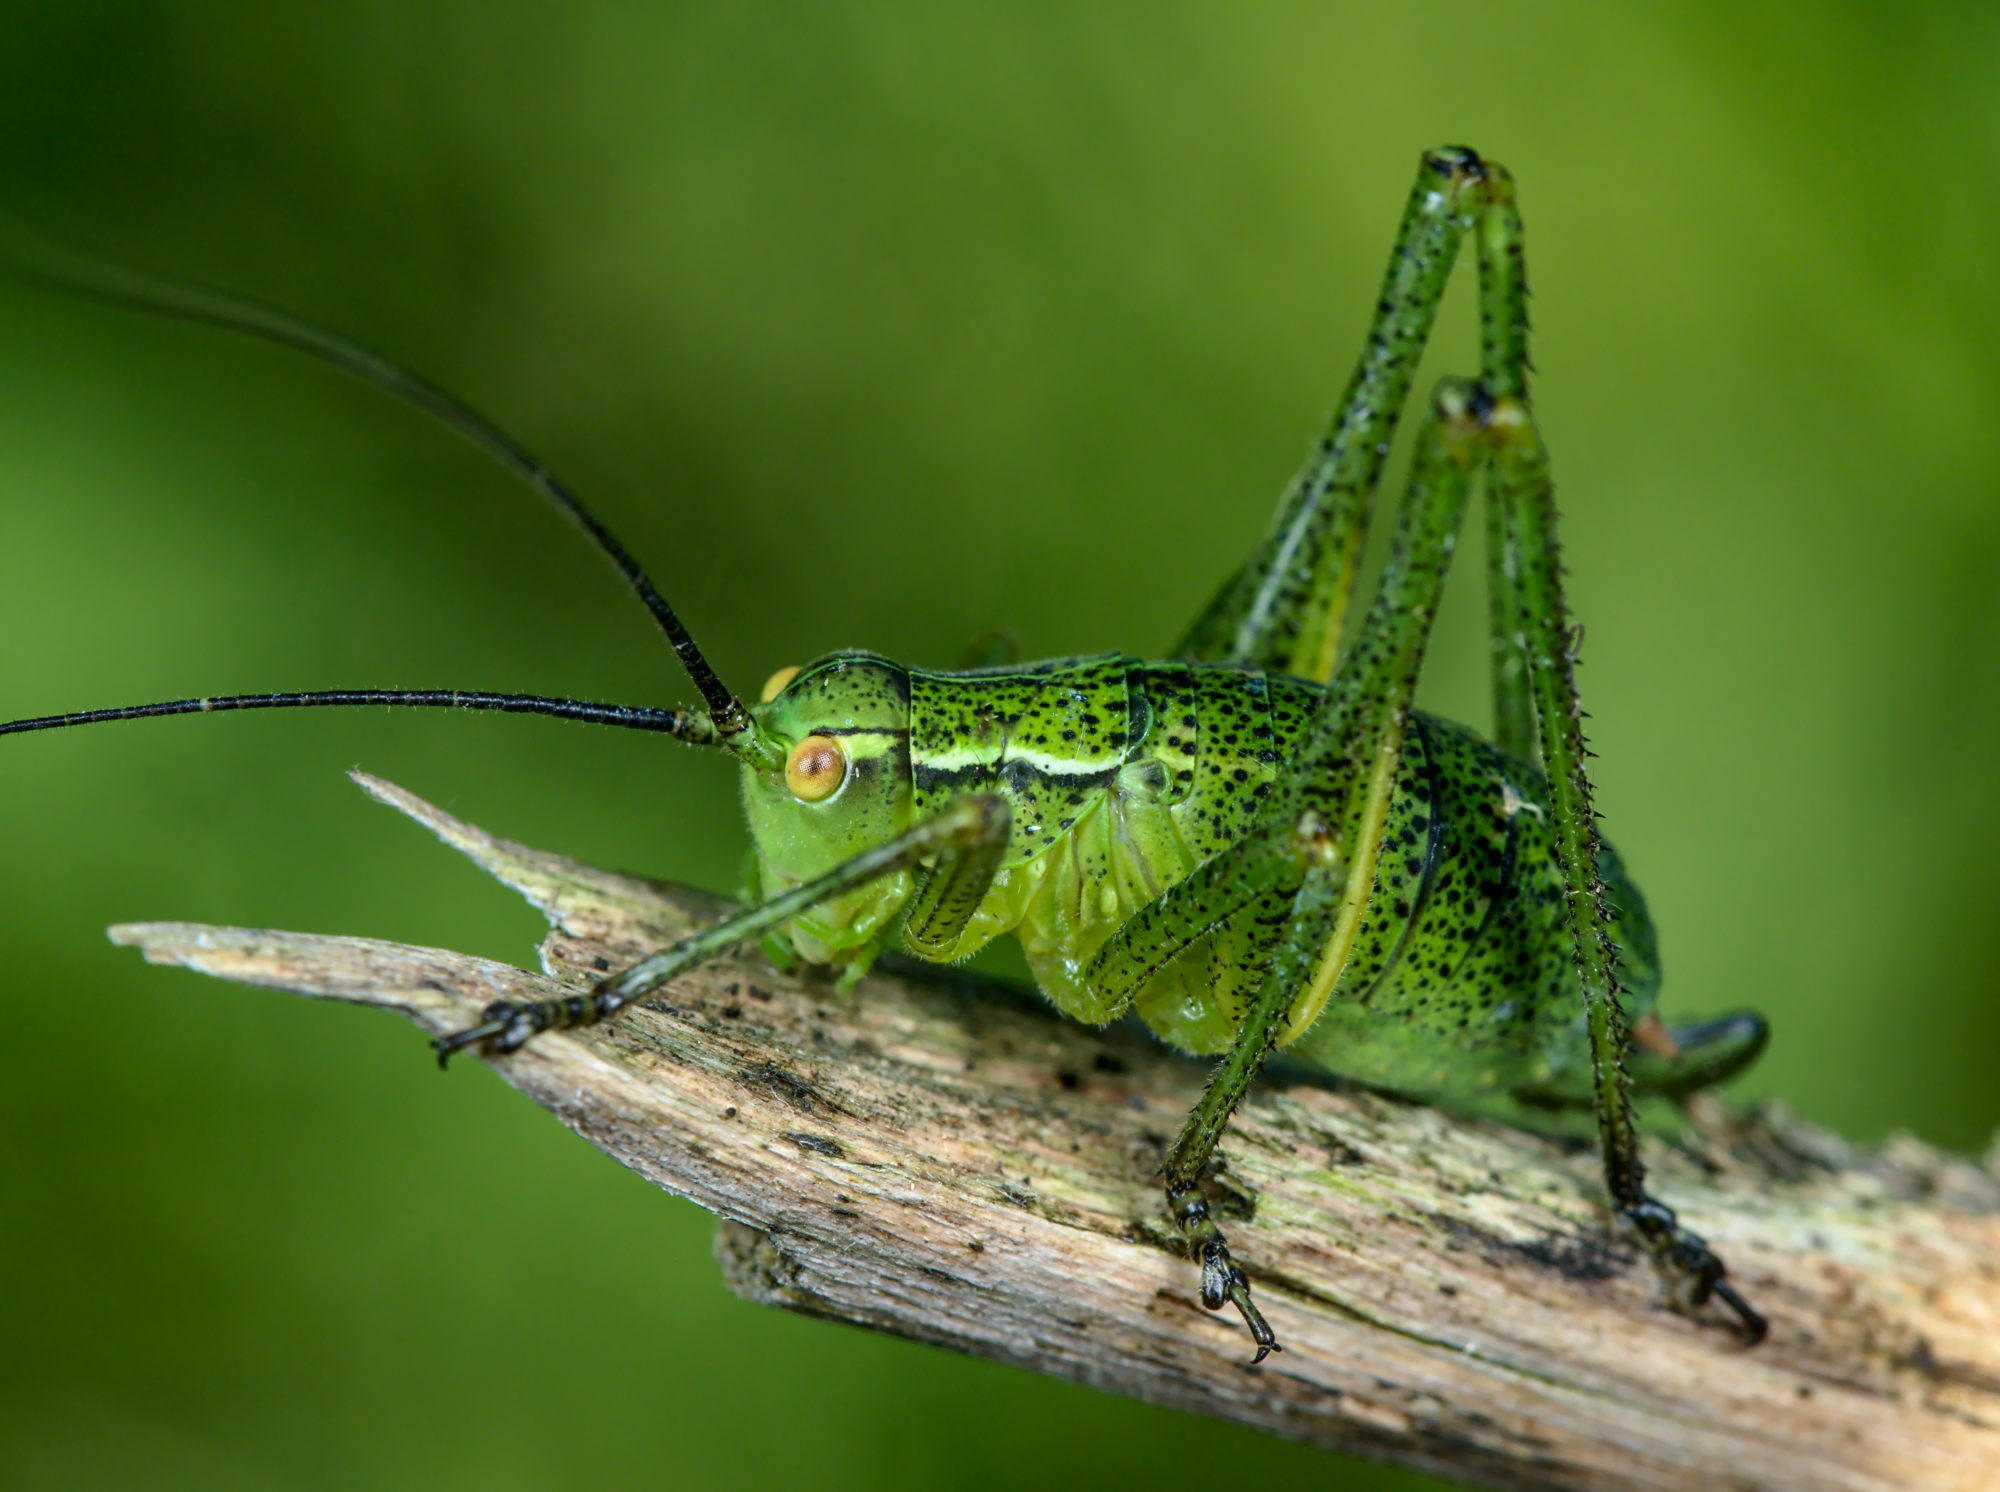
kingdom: Animalia
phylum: Arthropoda
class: Insecta
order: Orthoptera
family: Tettigoniidae
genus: Barbitistes
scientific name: Barbitistes serricauda
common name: Saw-tailed bush-cricket
